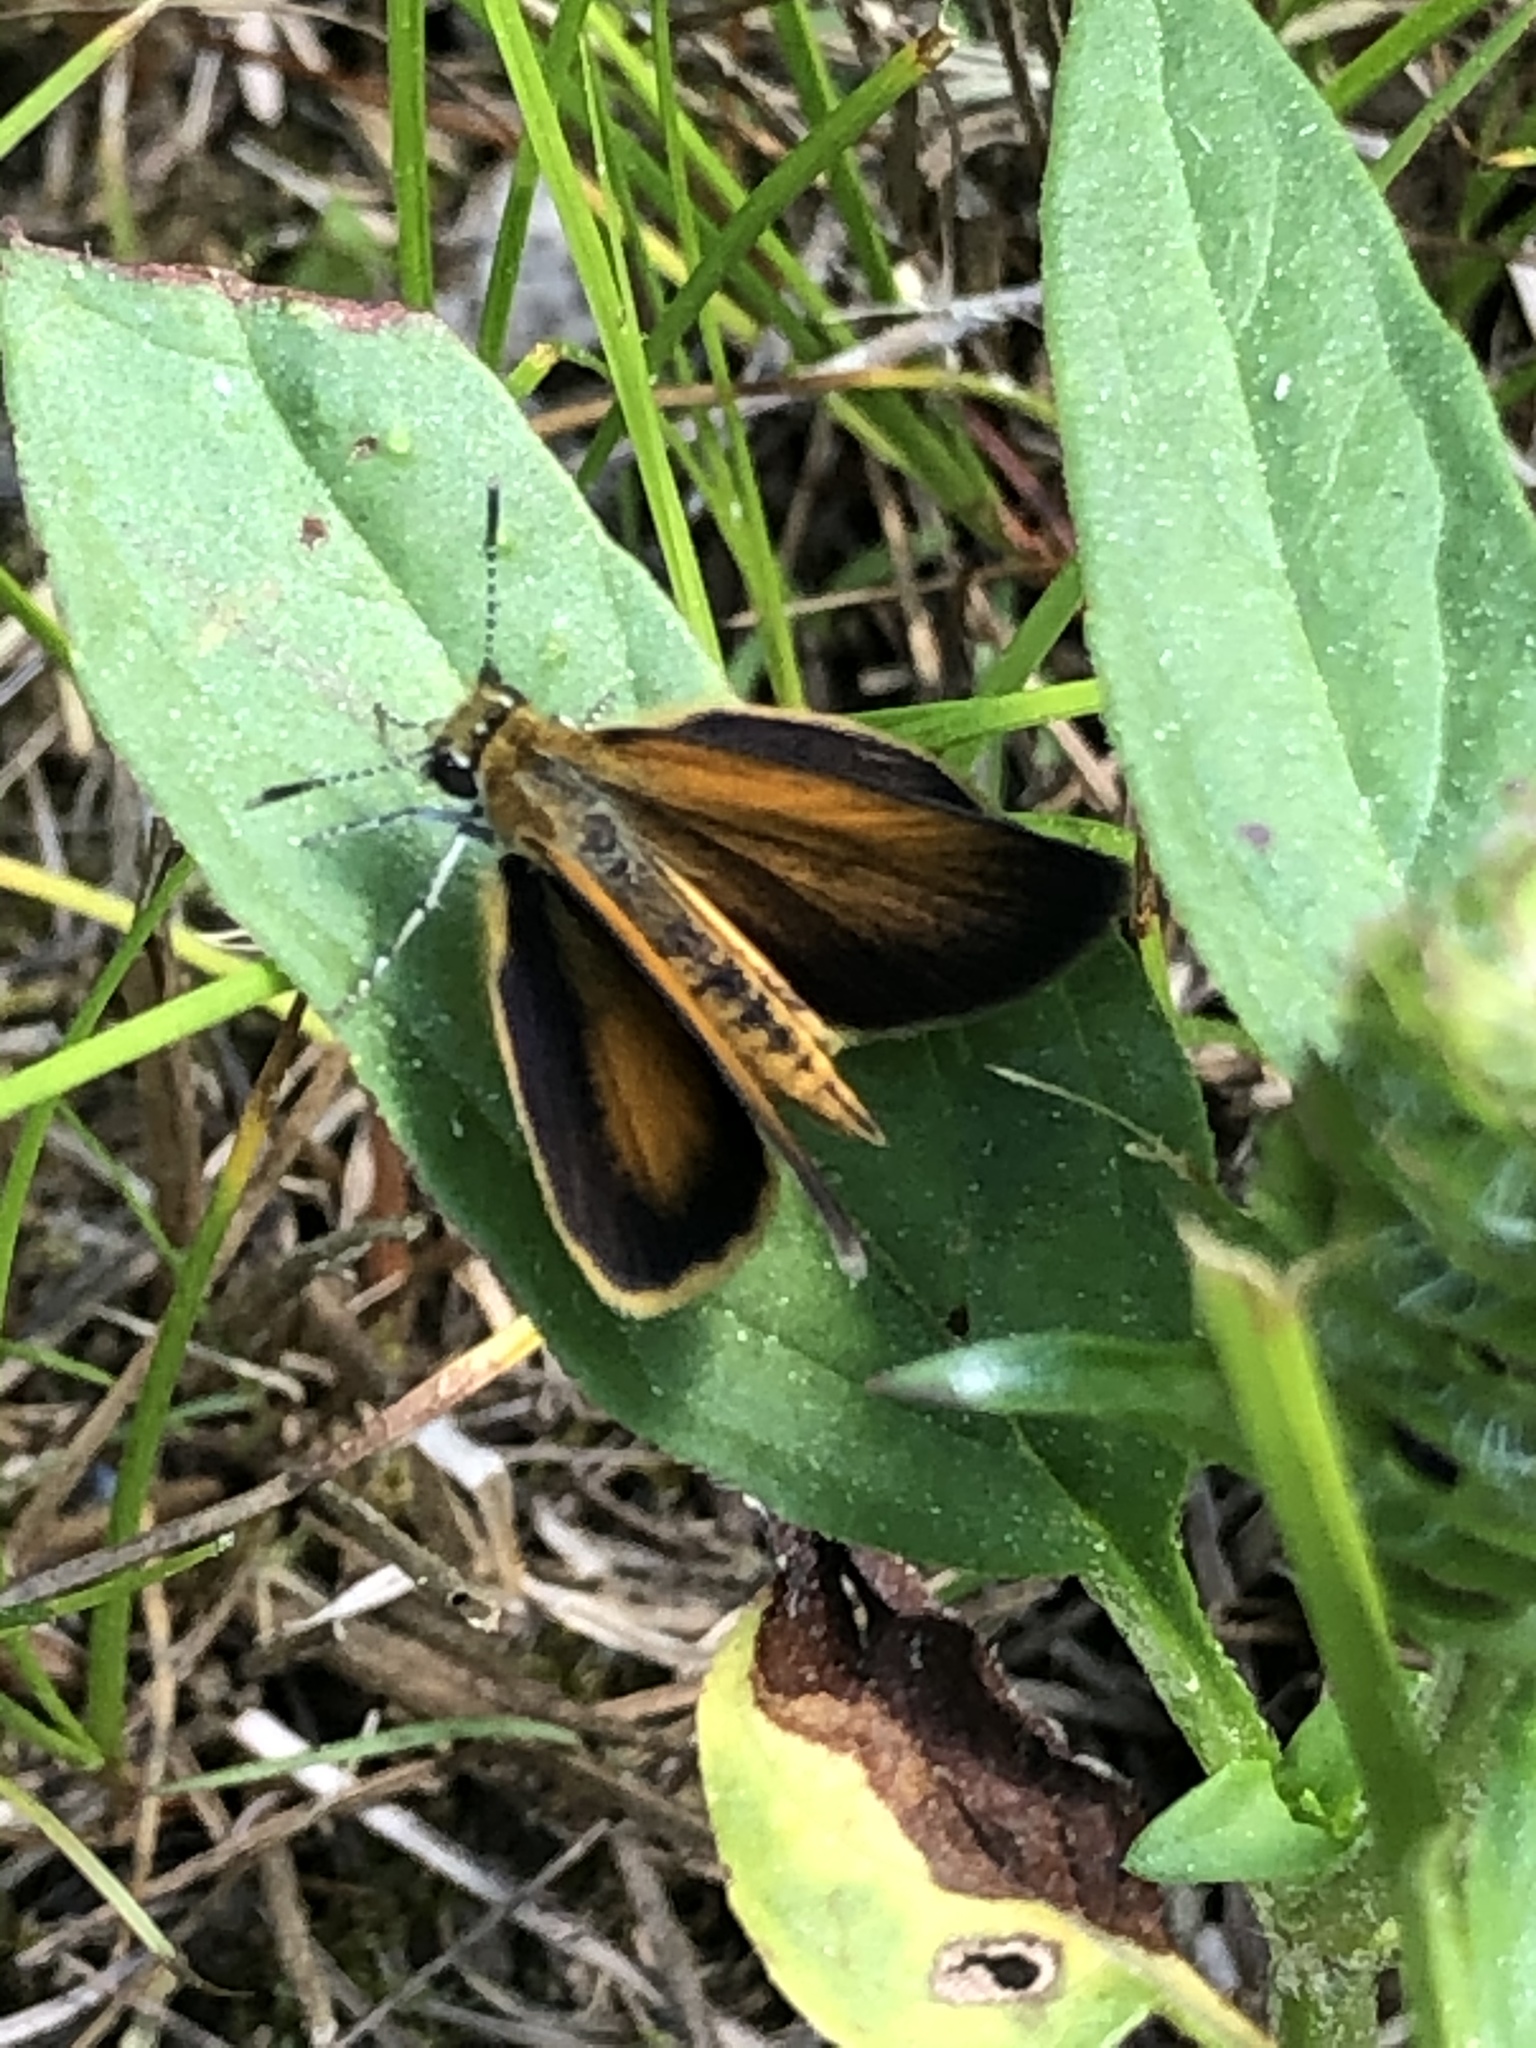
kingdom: Animalia
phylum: Arthropoda
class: Insecta
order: Lepidoptera
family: Hesperiidae
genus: Ancyloxypha
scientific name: Ancyloxypha numitor
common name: Least skipper
